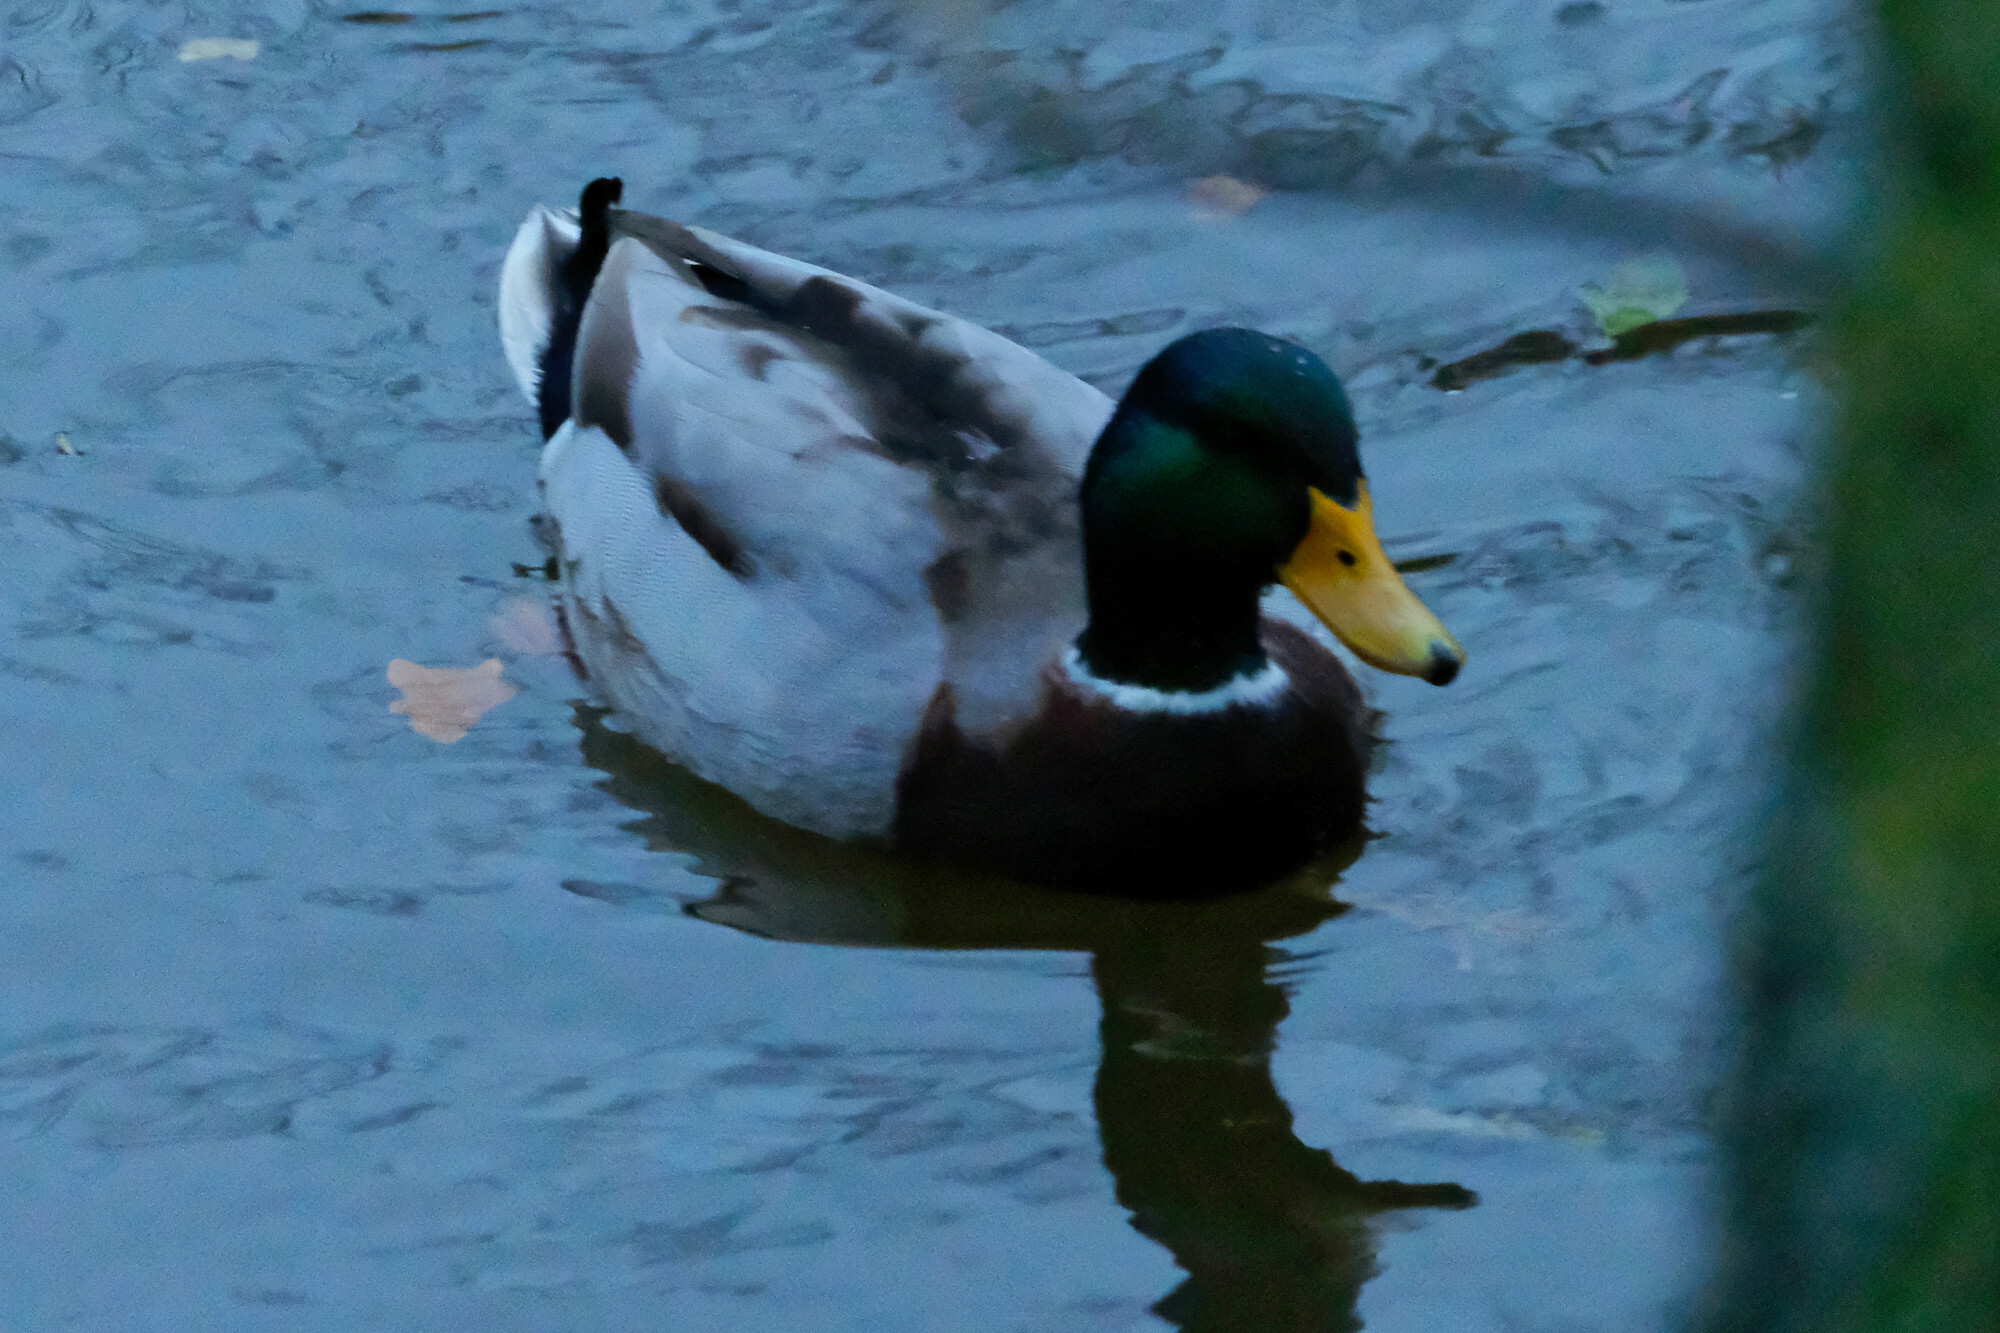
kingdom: Animalia
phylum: Chordata
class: Aves
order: Anseriformes
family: Anatidae
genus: Anas
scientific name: Anas platyrhynchos
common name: Mallard
